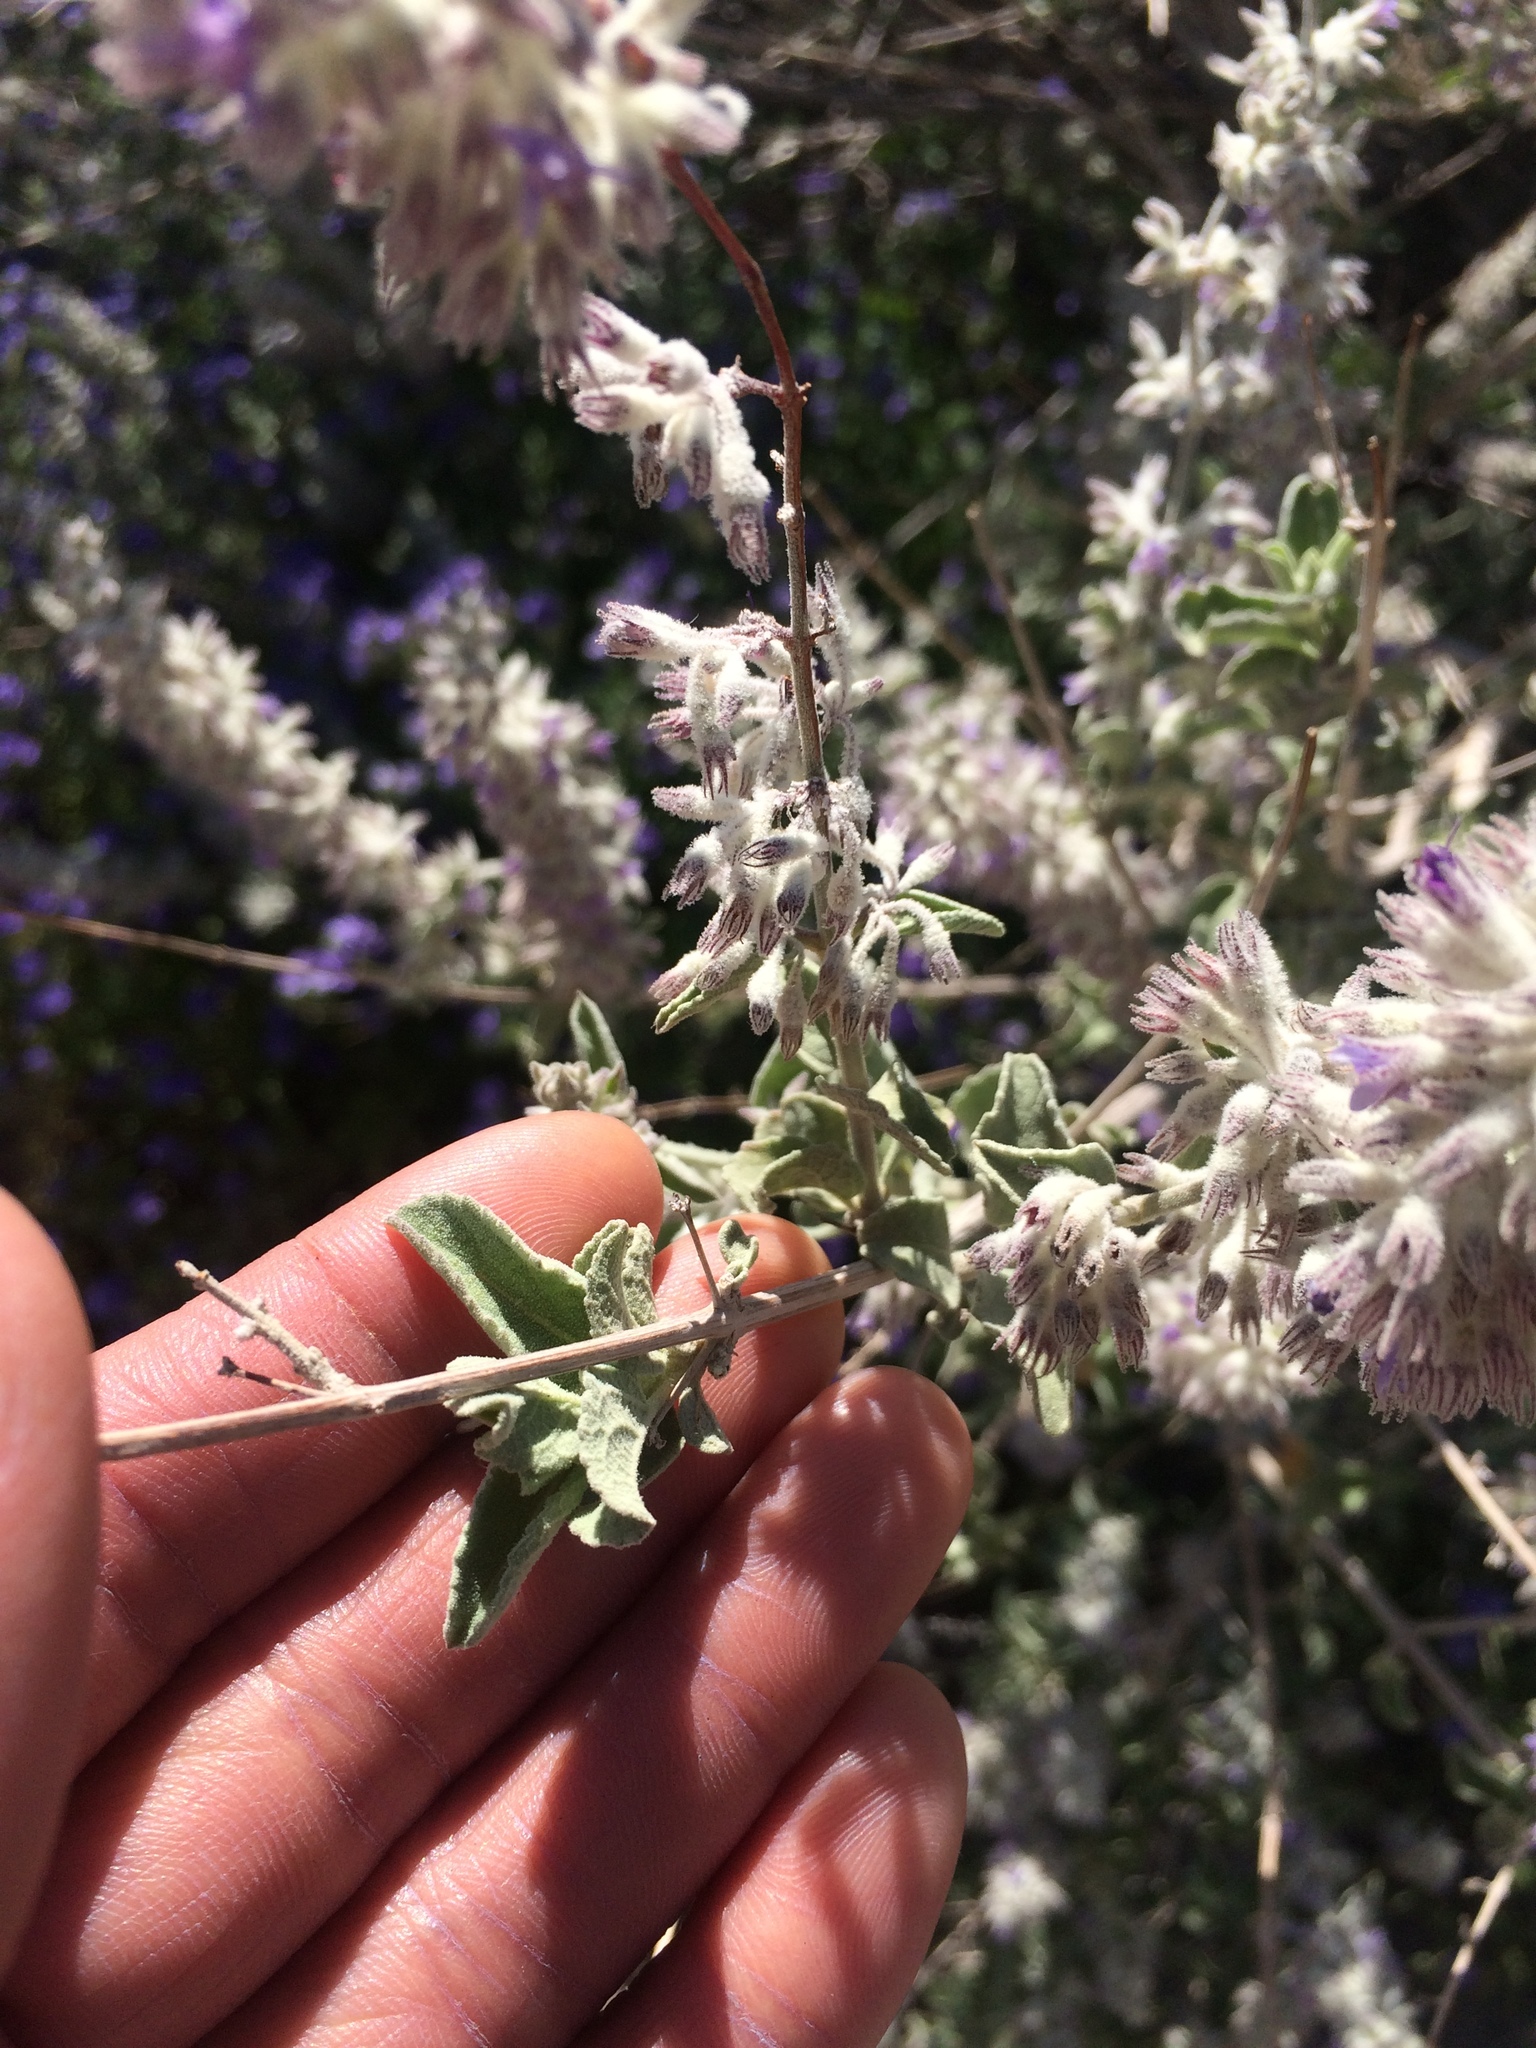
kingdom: Plantae
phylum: Tracheophyta
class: Magnoliopsida
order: Lamiales
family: Lamiaceae
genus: Condea
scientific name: Condea emoryi
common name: Chia
